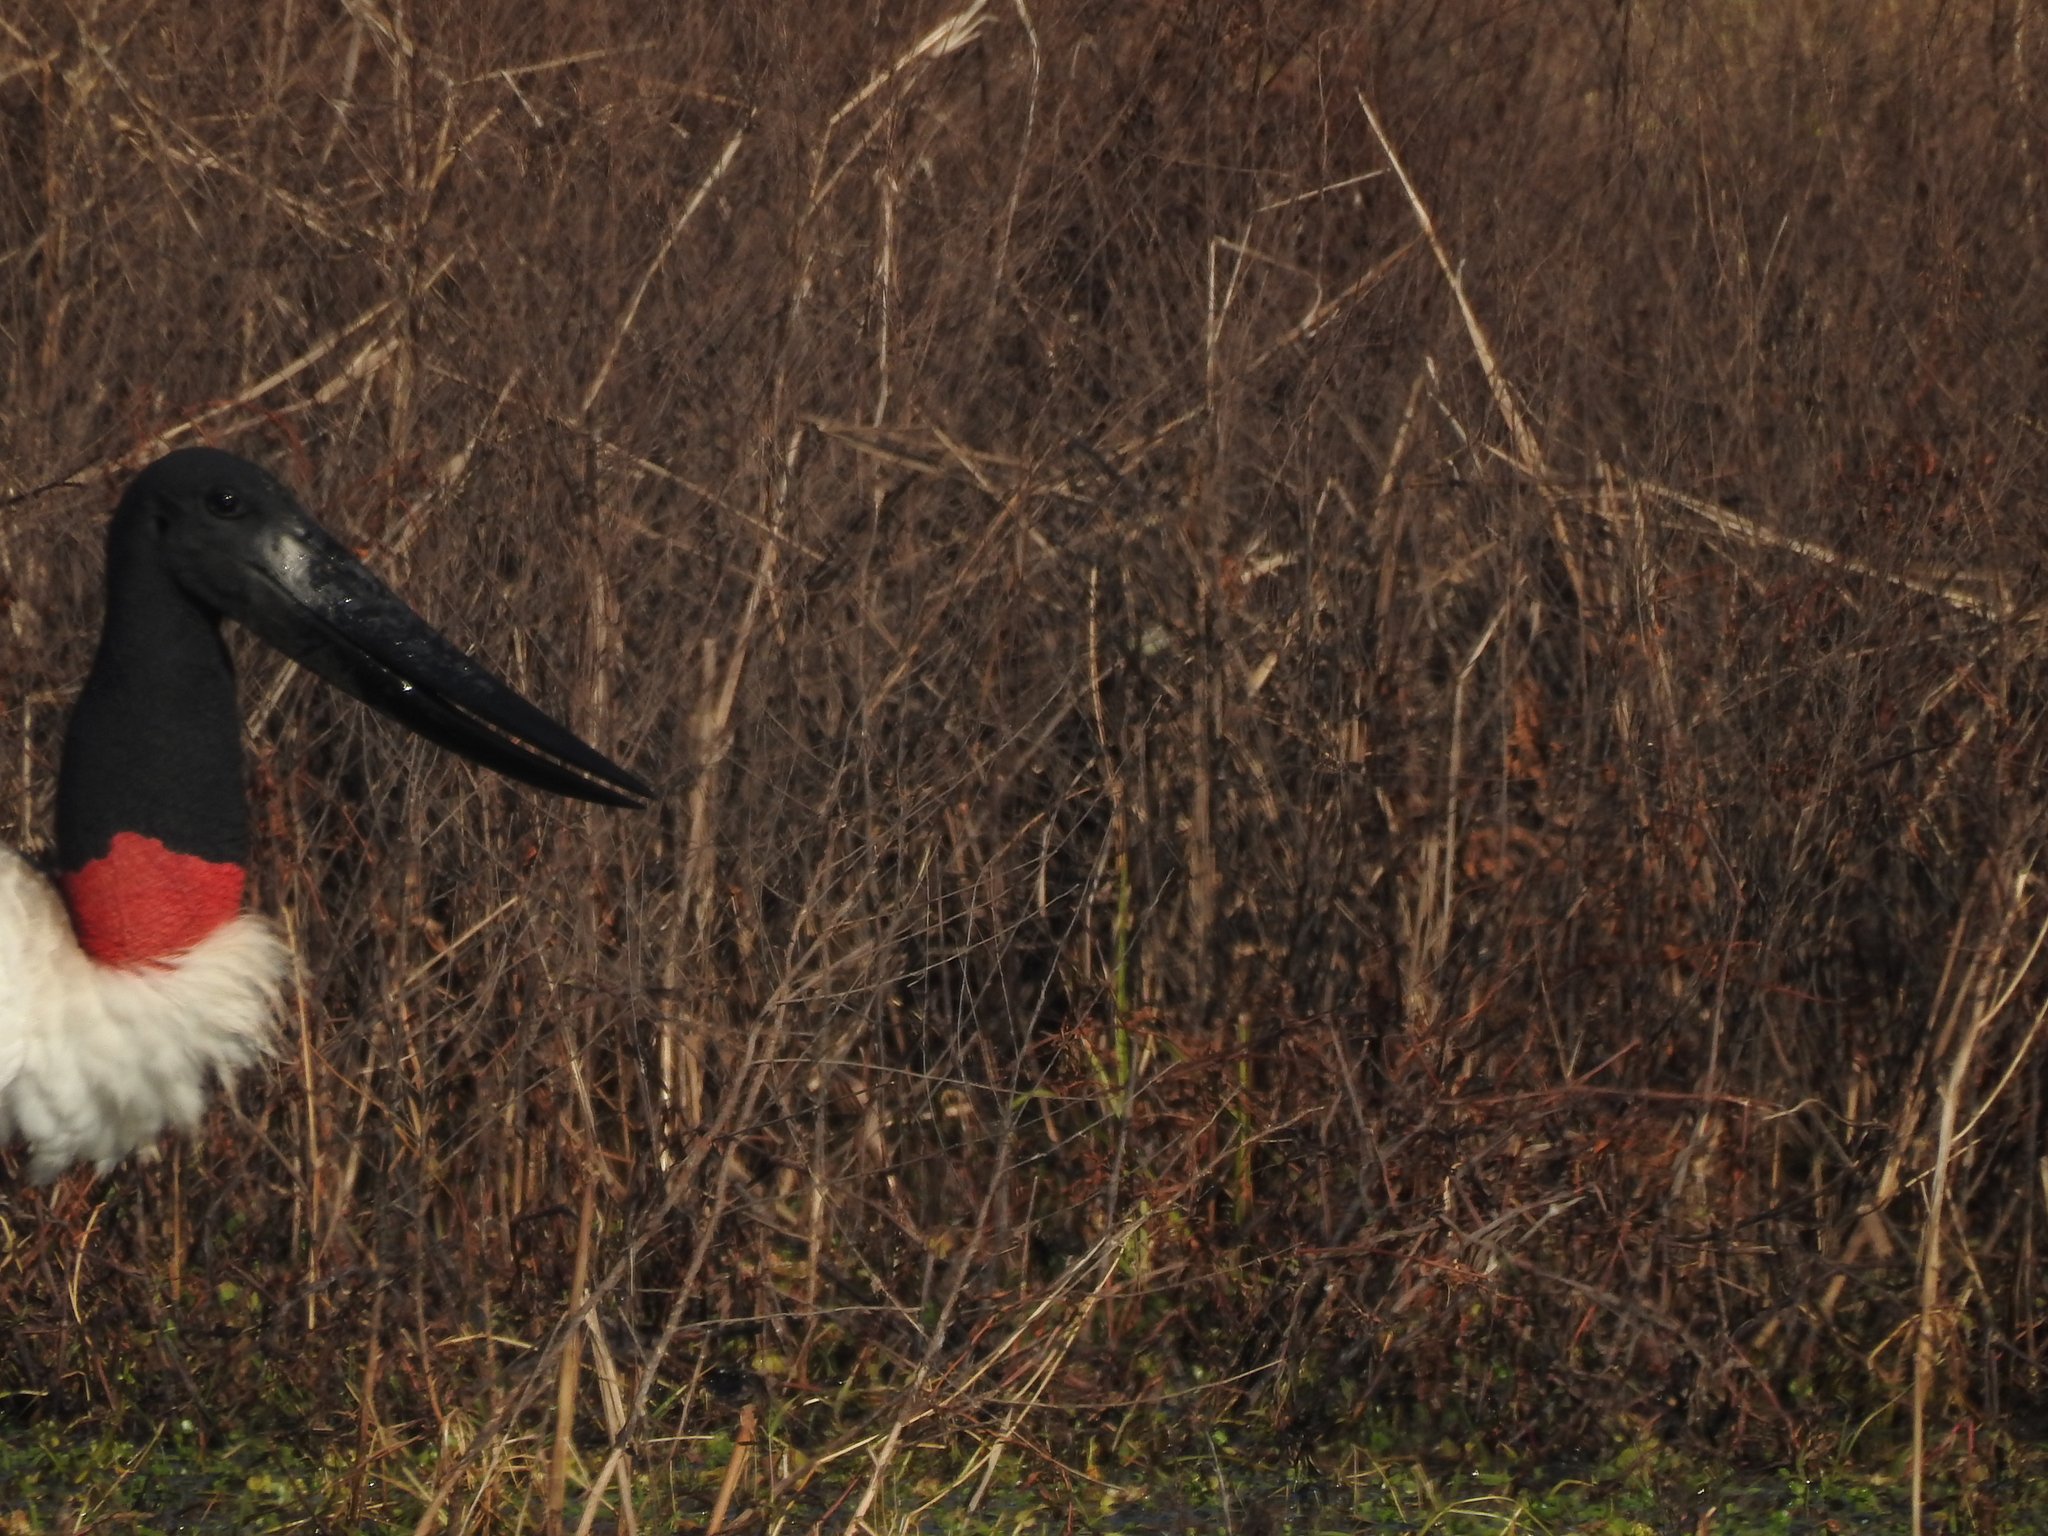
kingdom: Animalia
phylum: Chordata
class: Aves
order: Ciconiiformes
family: Ciconiidae
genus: Jabiru
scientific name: Jabiru mycteria
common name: Jabiru
